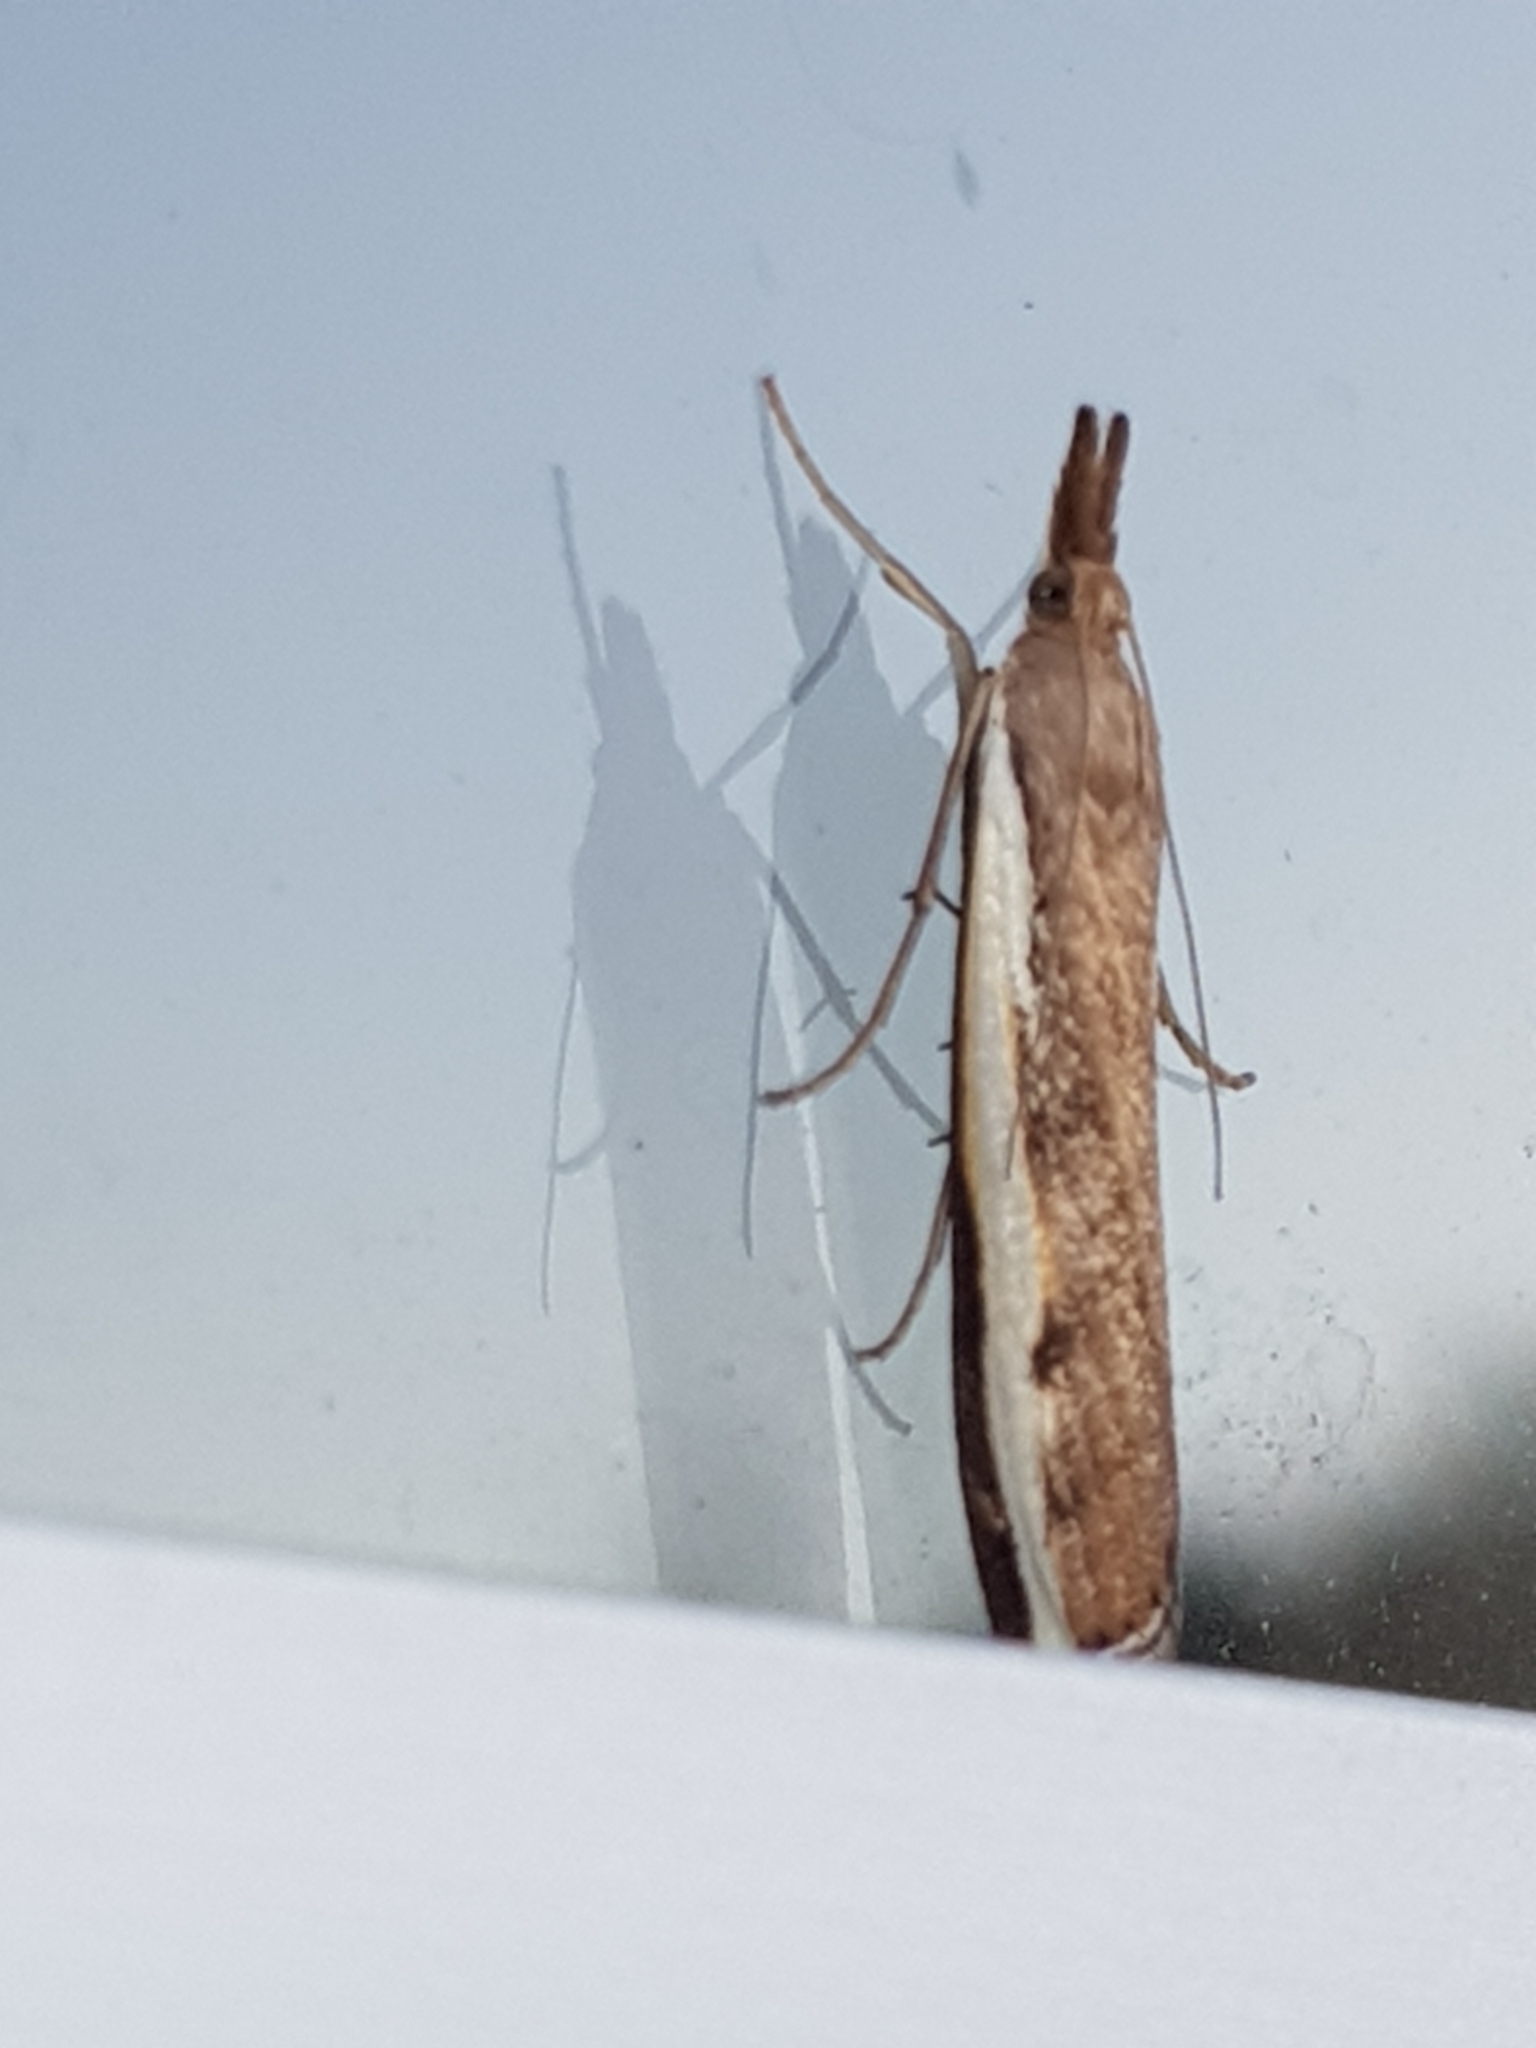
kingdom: Animalia
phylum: Arthropoda
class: Insecta
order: Lepidoptera
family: Crambidae
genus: Orocrambus
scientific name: Orocrambus flexuosellus
